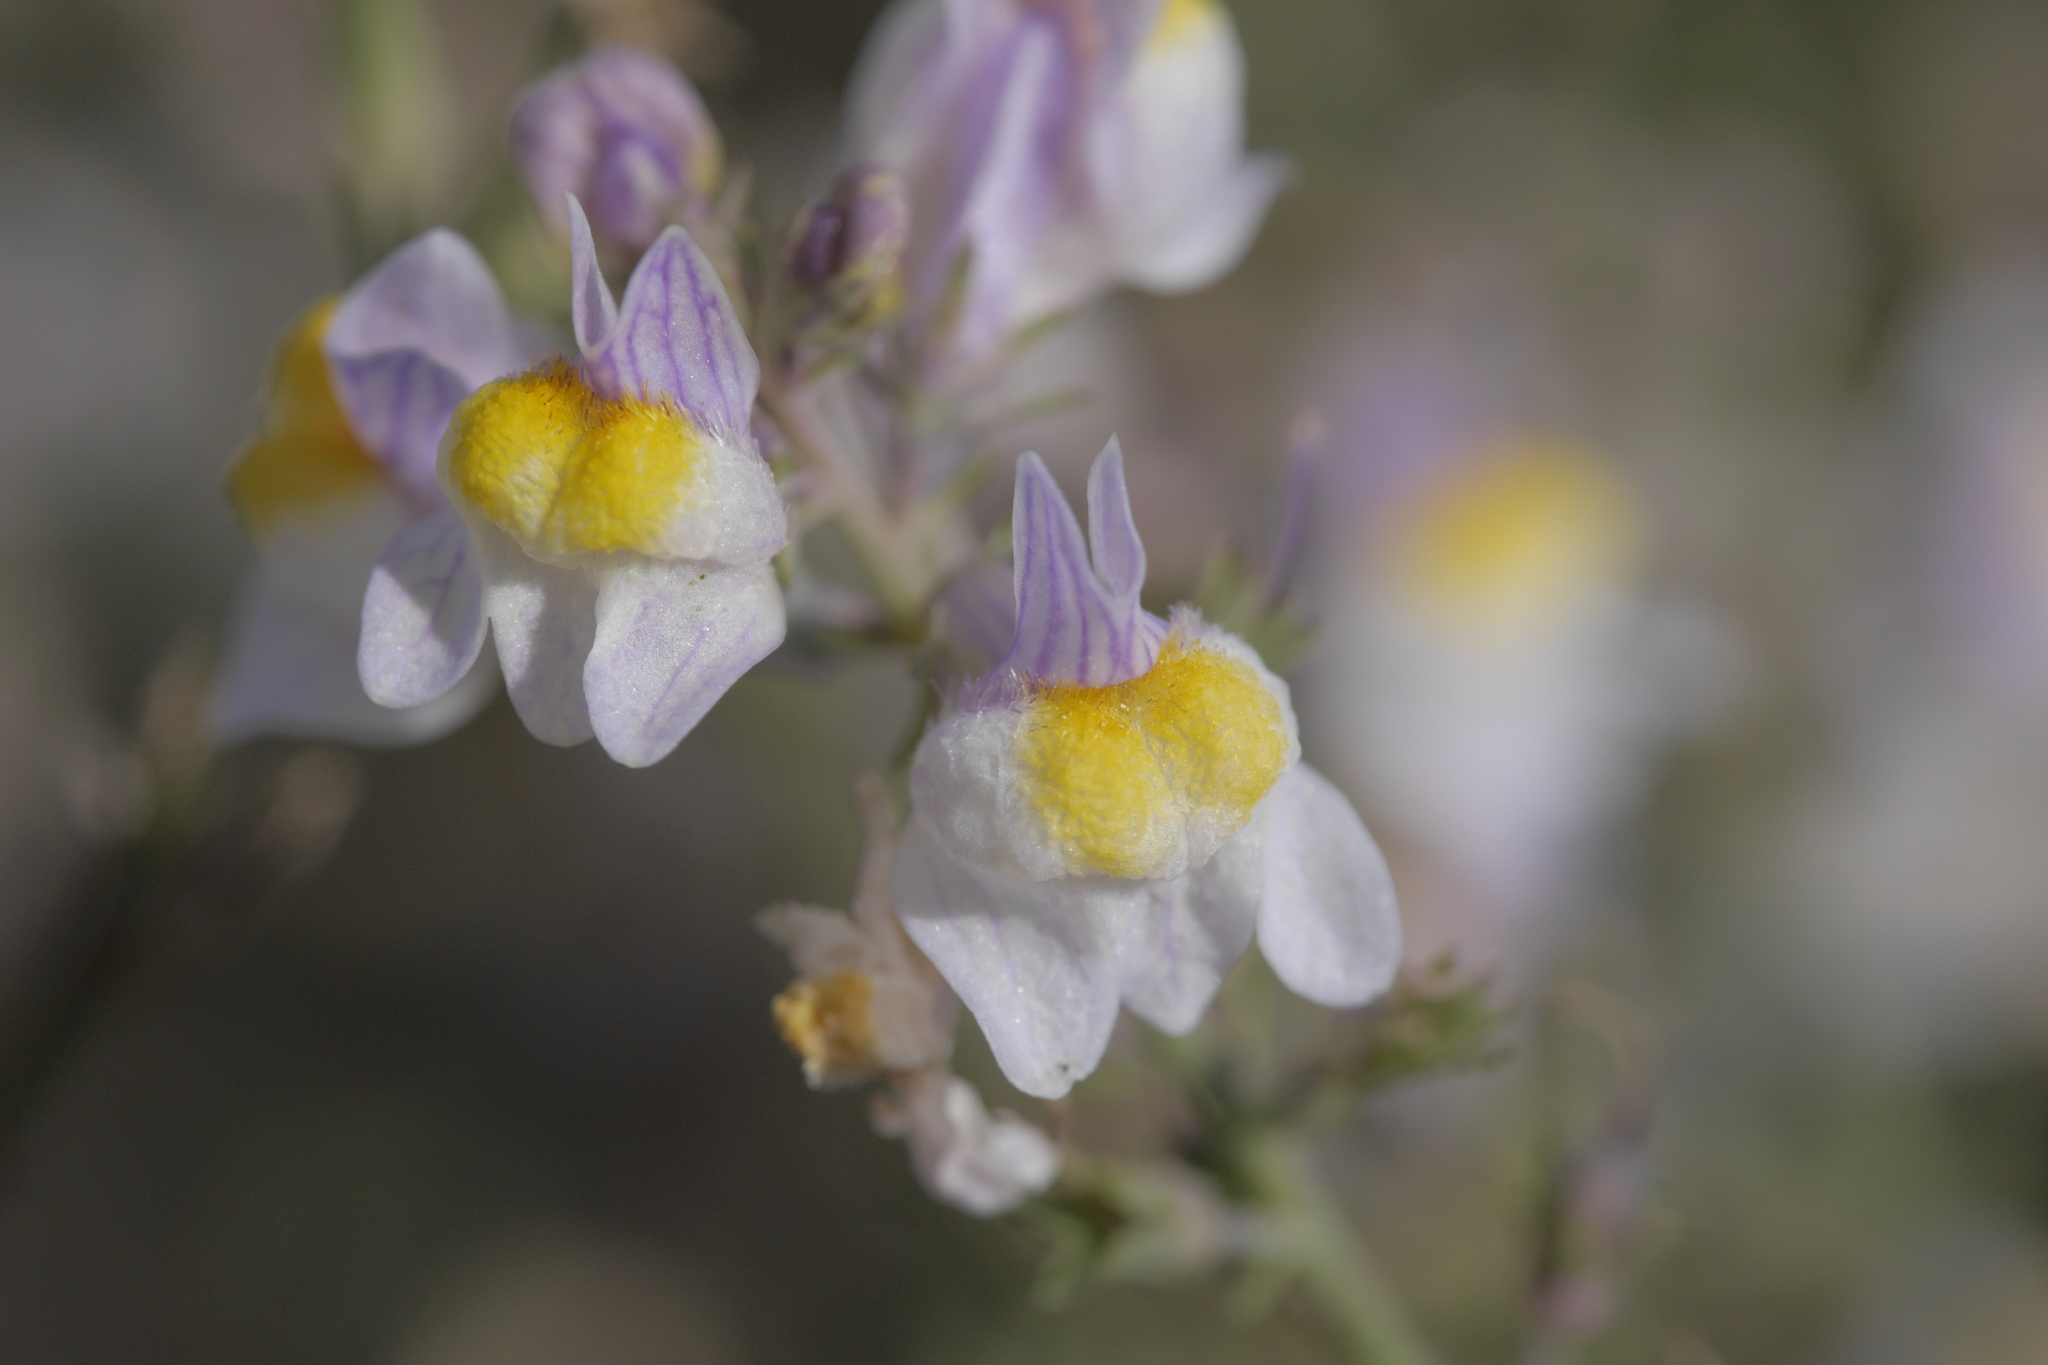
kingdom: Plantae
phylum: Tracheophyta
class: Magnoliopsida
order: Lamiales
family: Plantaginaceae
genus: Linaria
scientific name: Linaria repens
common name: Pale toadflax
